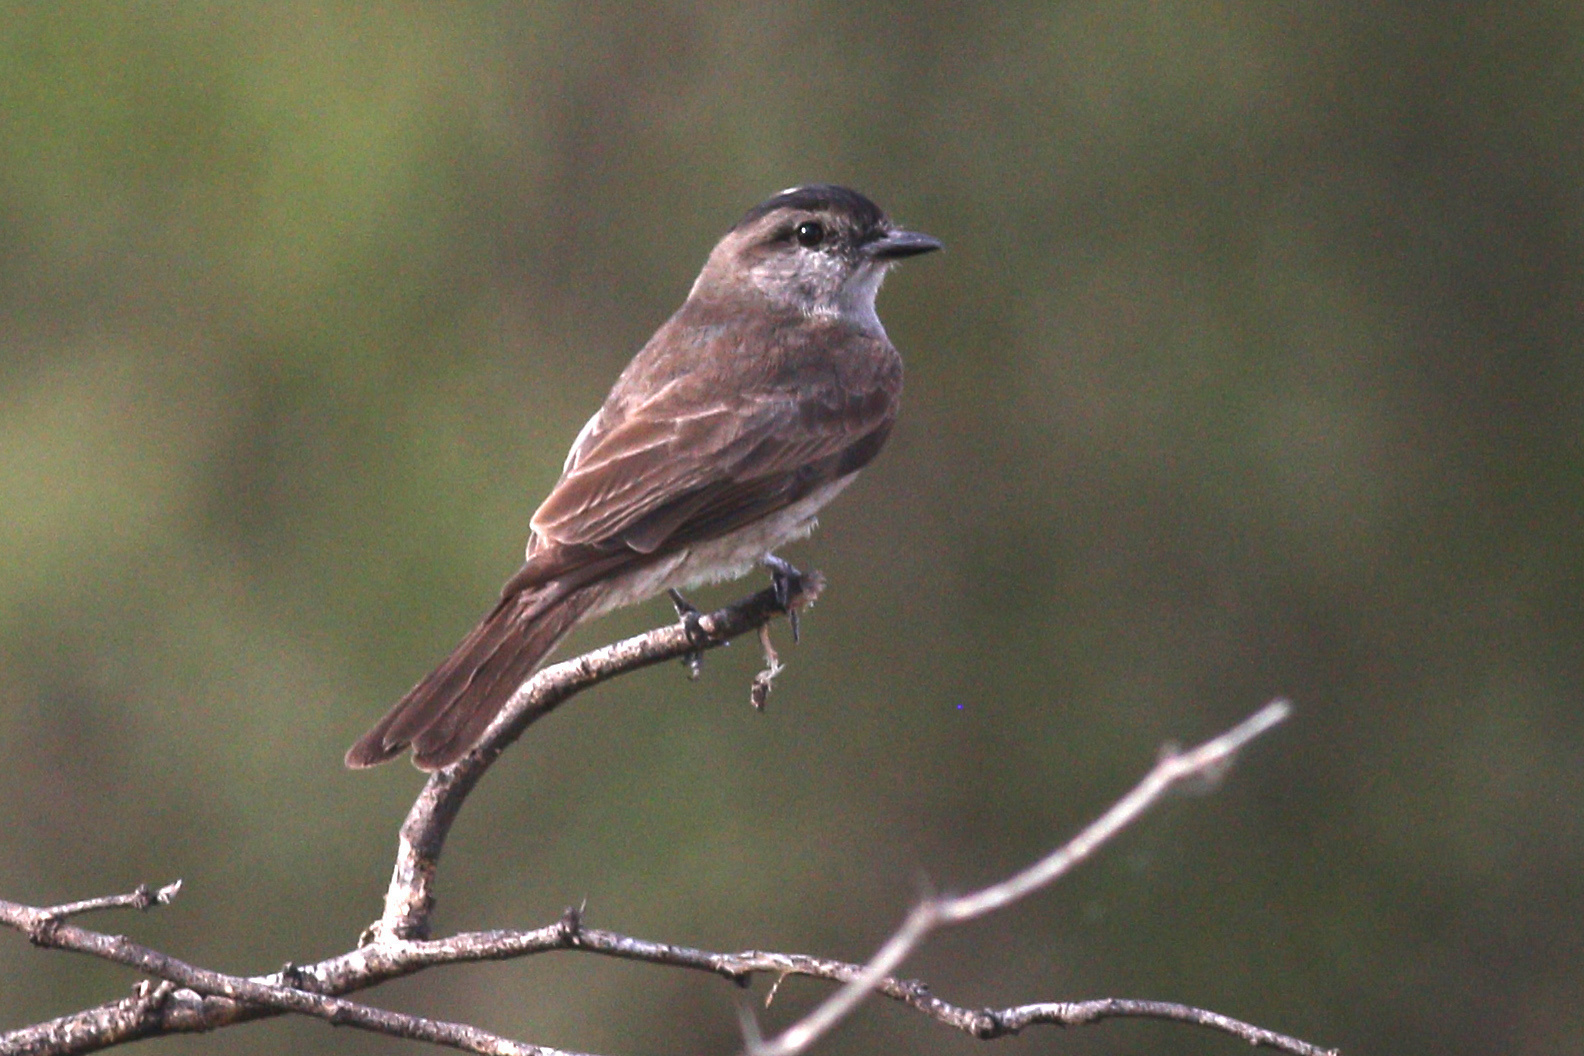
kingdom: Animalia
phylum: Chordata
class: Aves
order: Passeriformes
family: Tyrannidae
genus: Empidonomus
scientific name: Empidonomus aurantioatrocristatus
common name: Crowned slaty flycatcher
